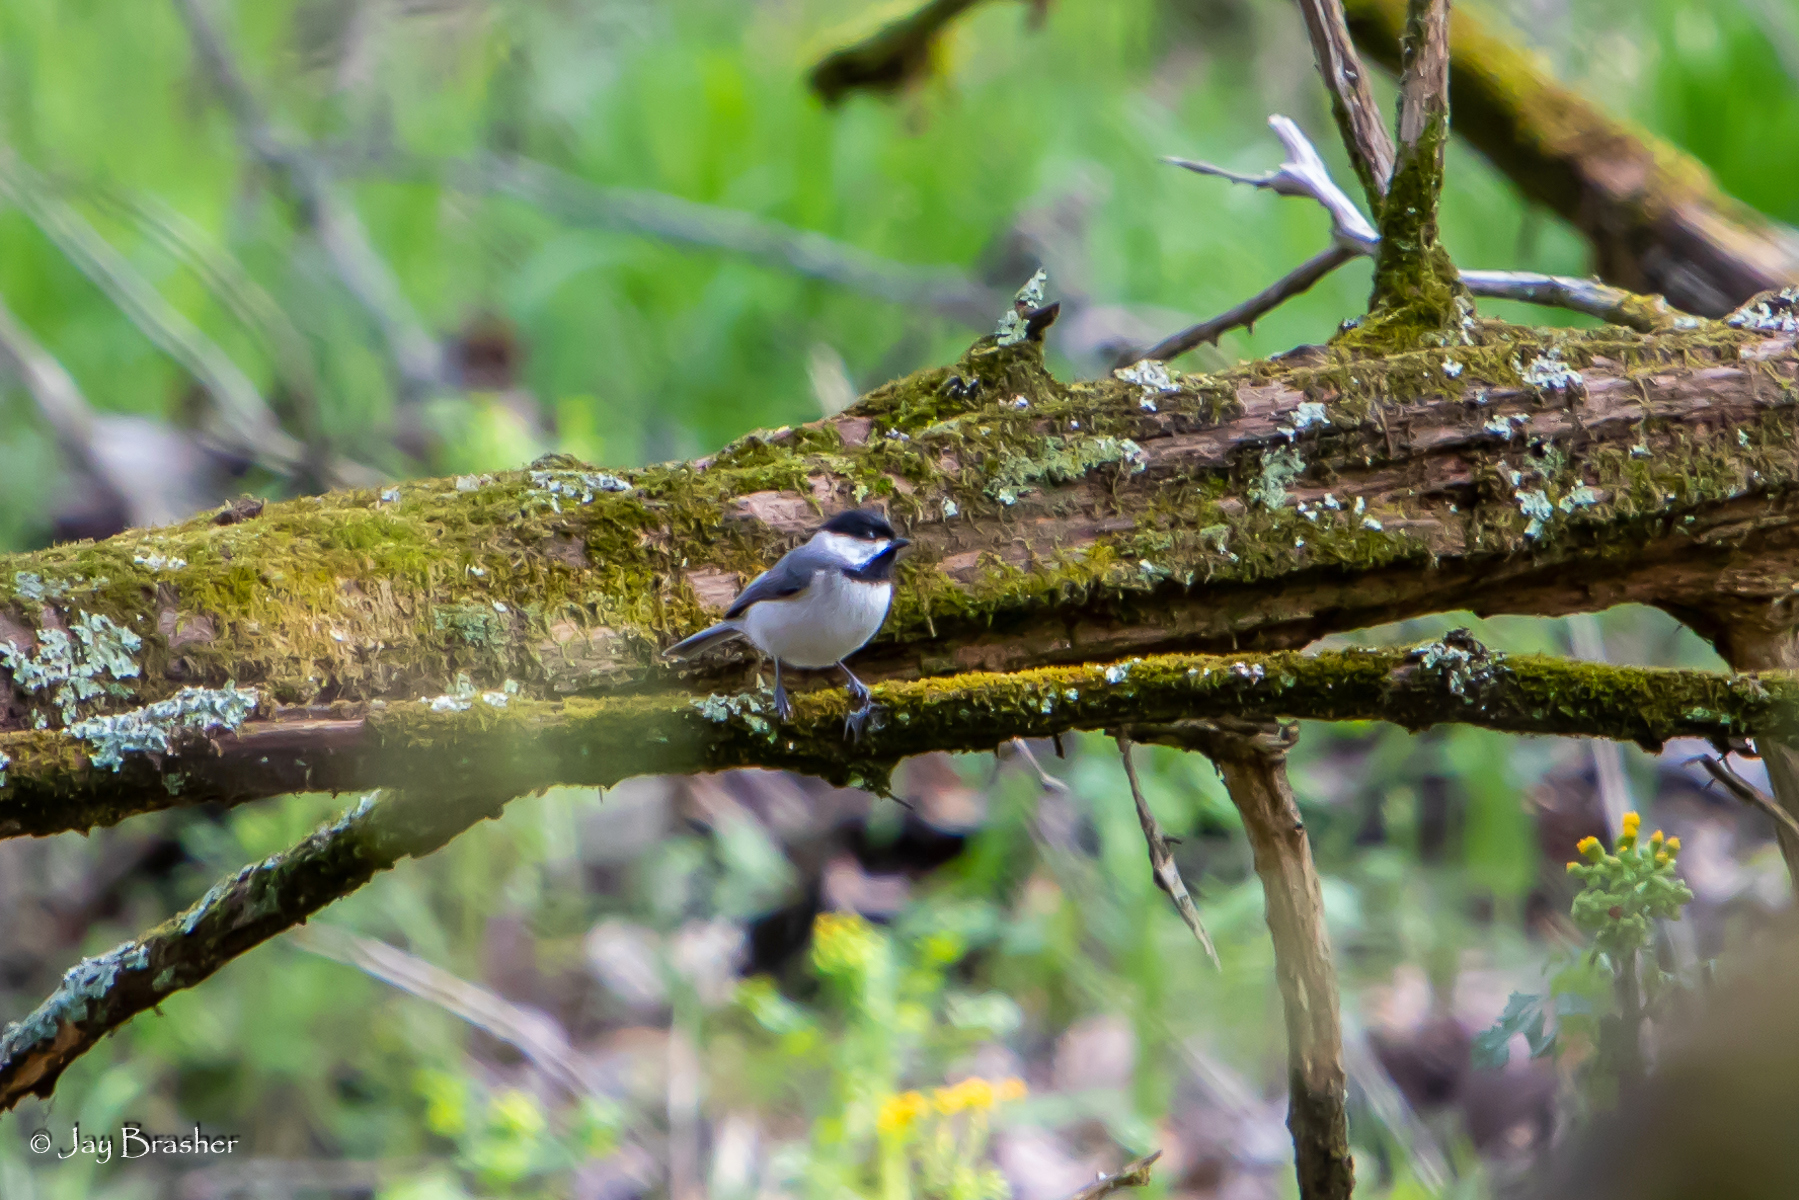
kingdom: Animalia
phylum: Chordata
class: Aves
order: Passeriformes
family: Paridae
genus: Poecile
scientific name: Poecile carolinensis
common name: Carolina chickadee
